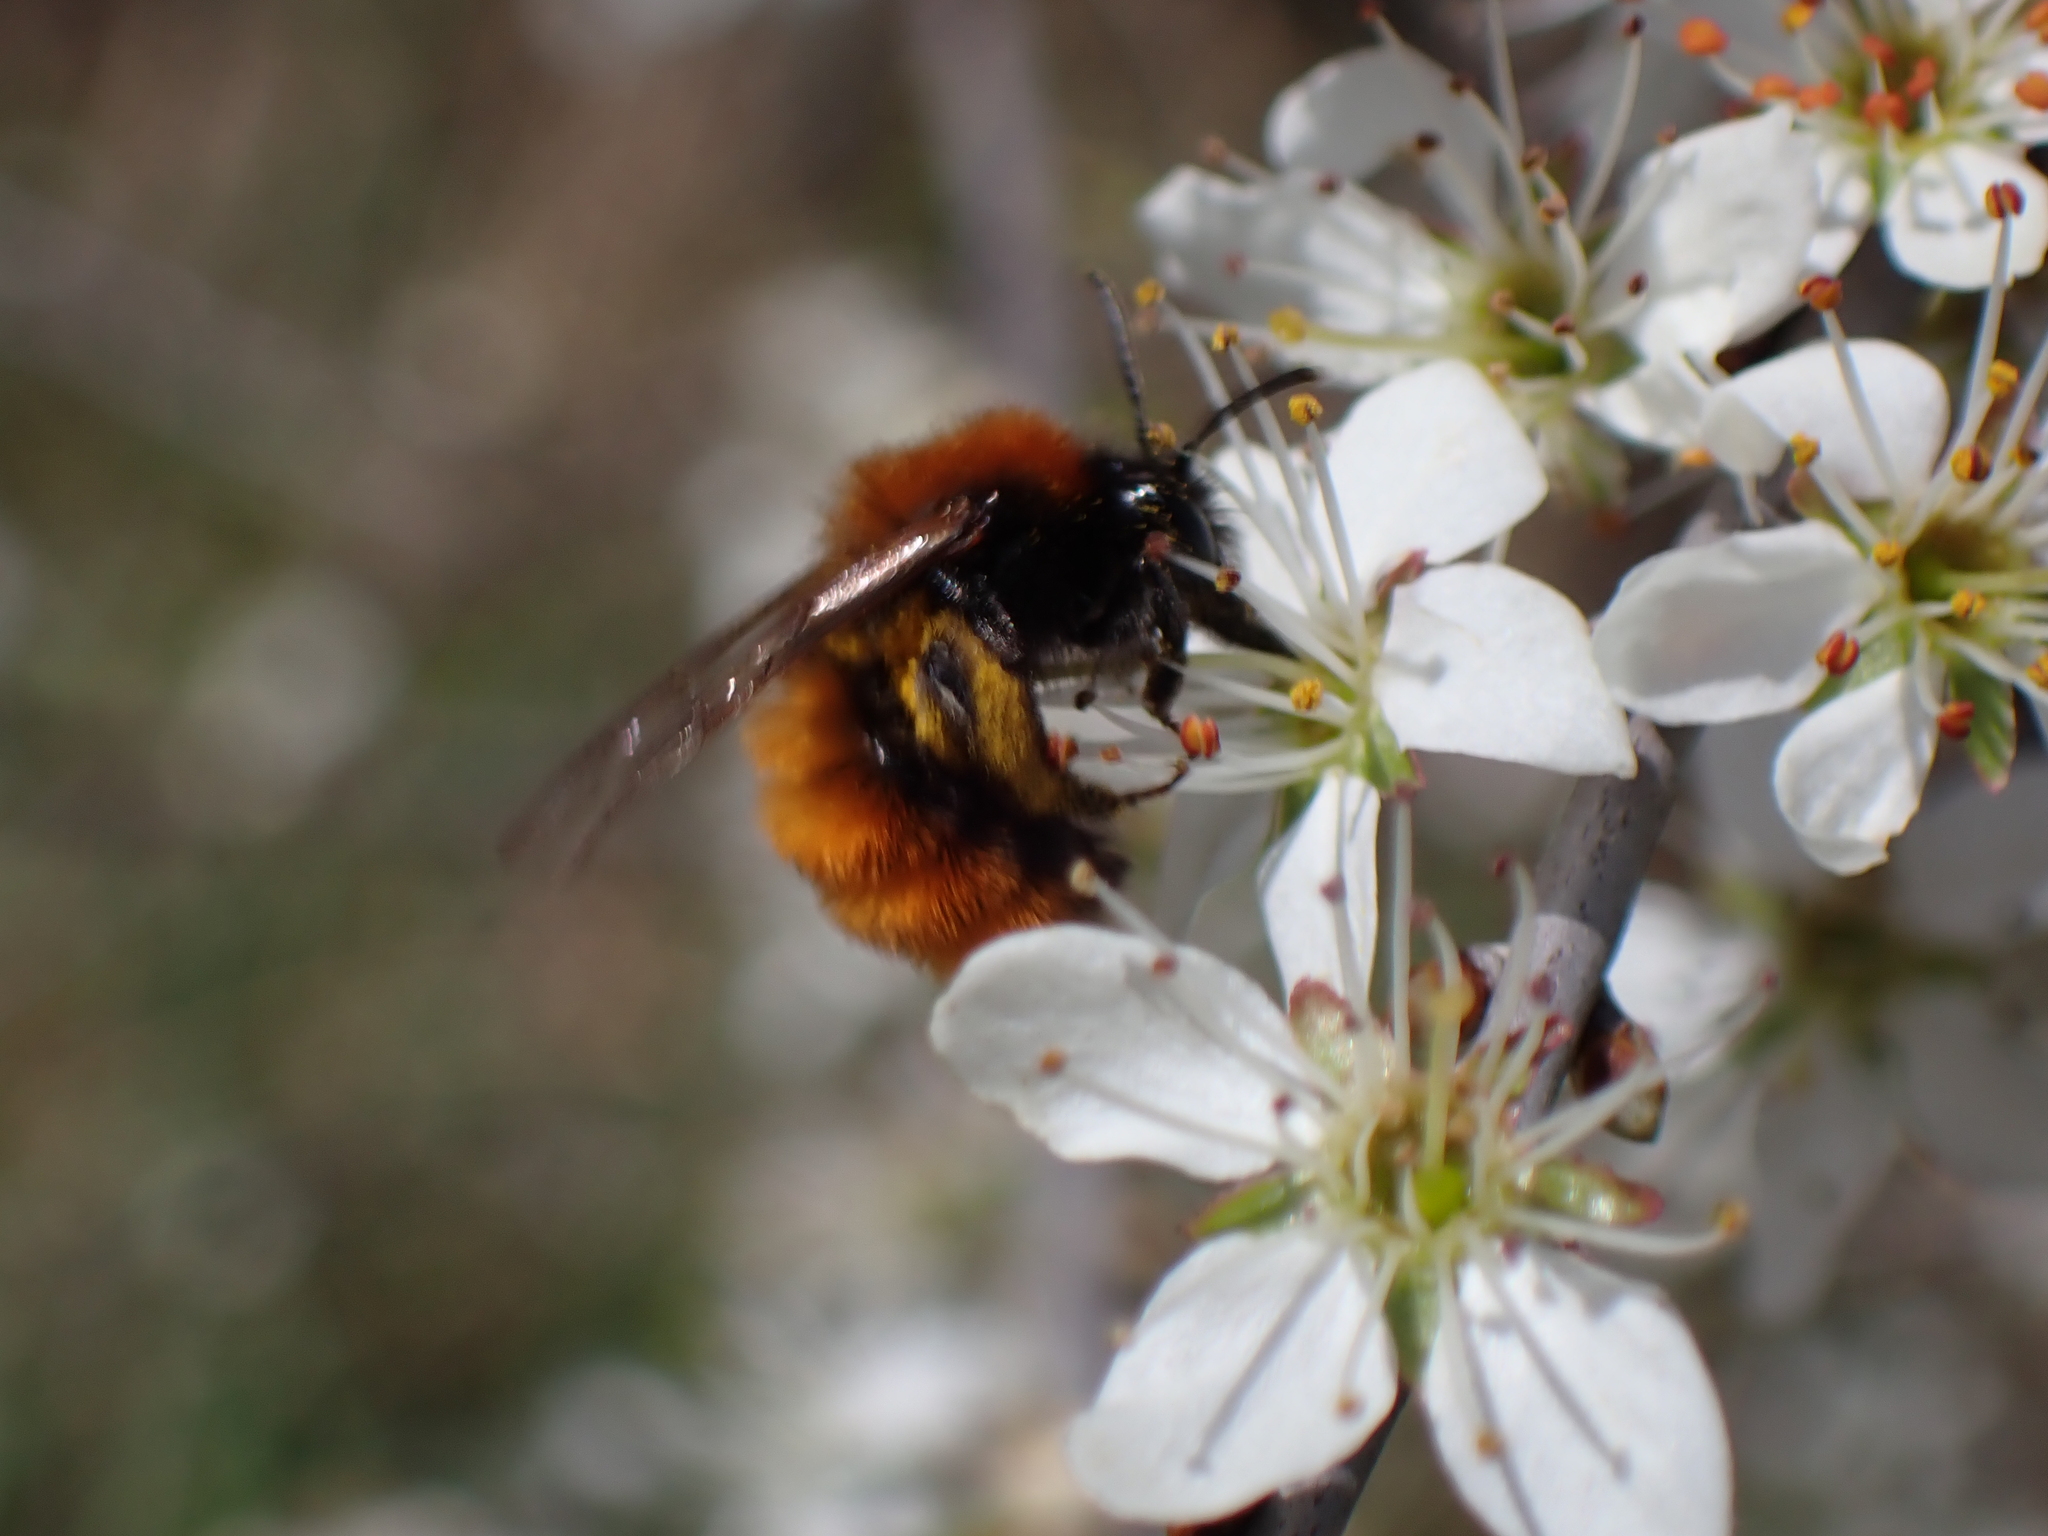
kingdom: Animalia
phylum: Arthropoda
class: Insecta
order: Hymenoptera
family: Andrenidae
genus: Andrena
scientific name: Andrena fulva
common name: Tawny mining bee
